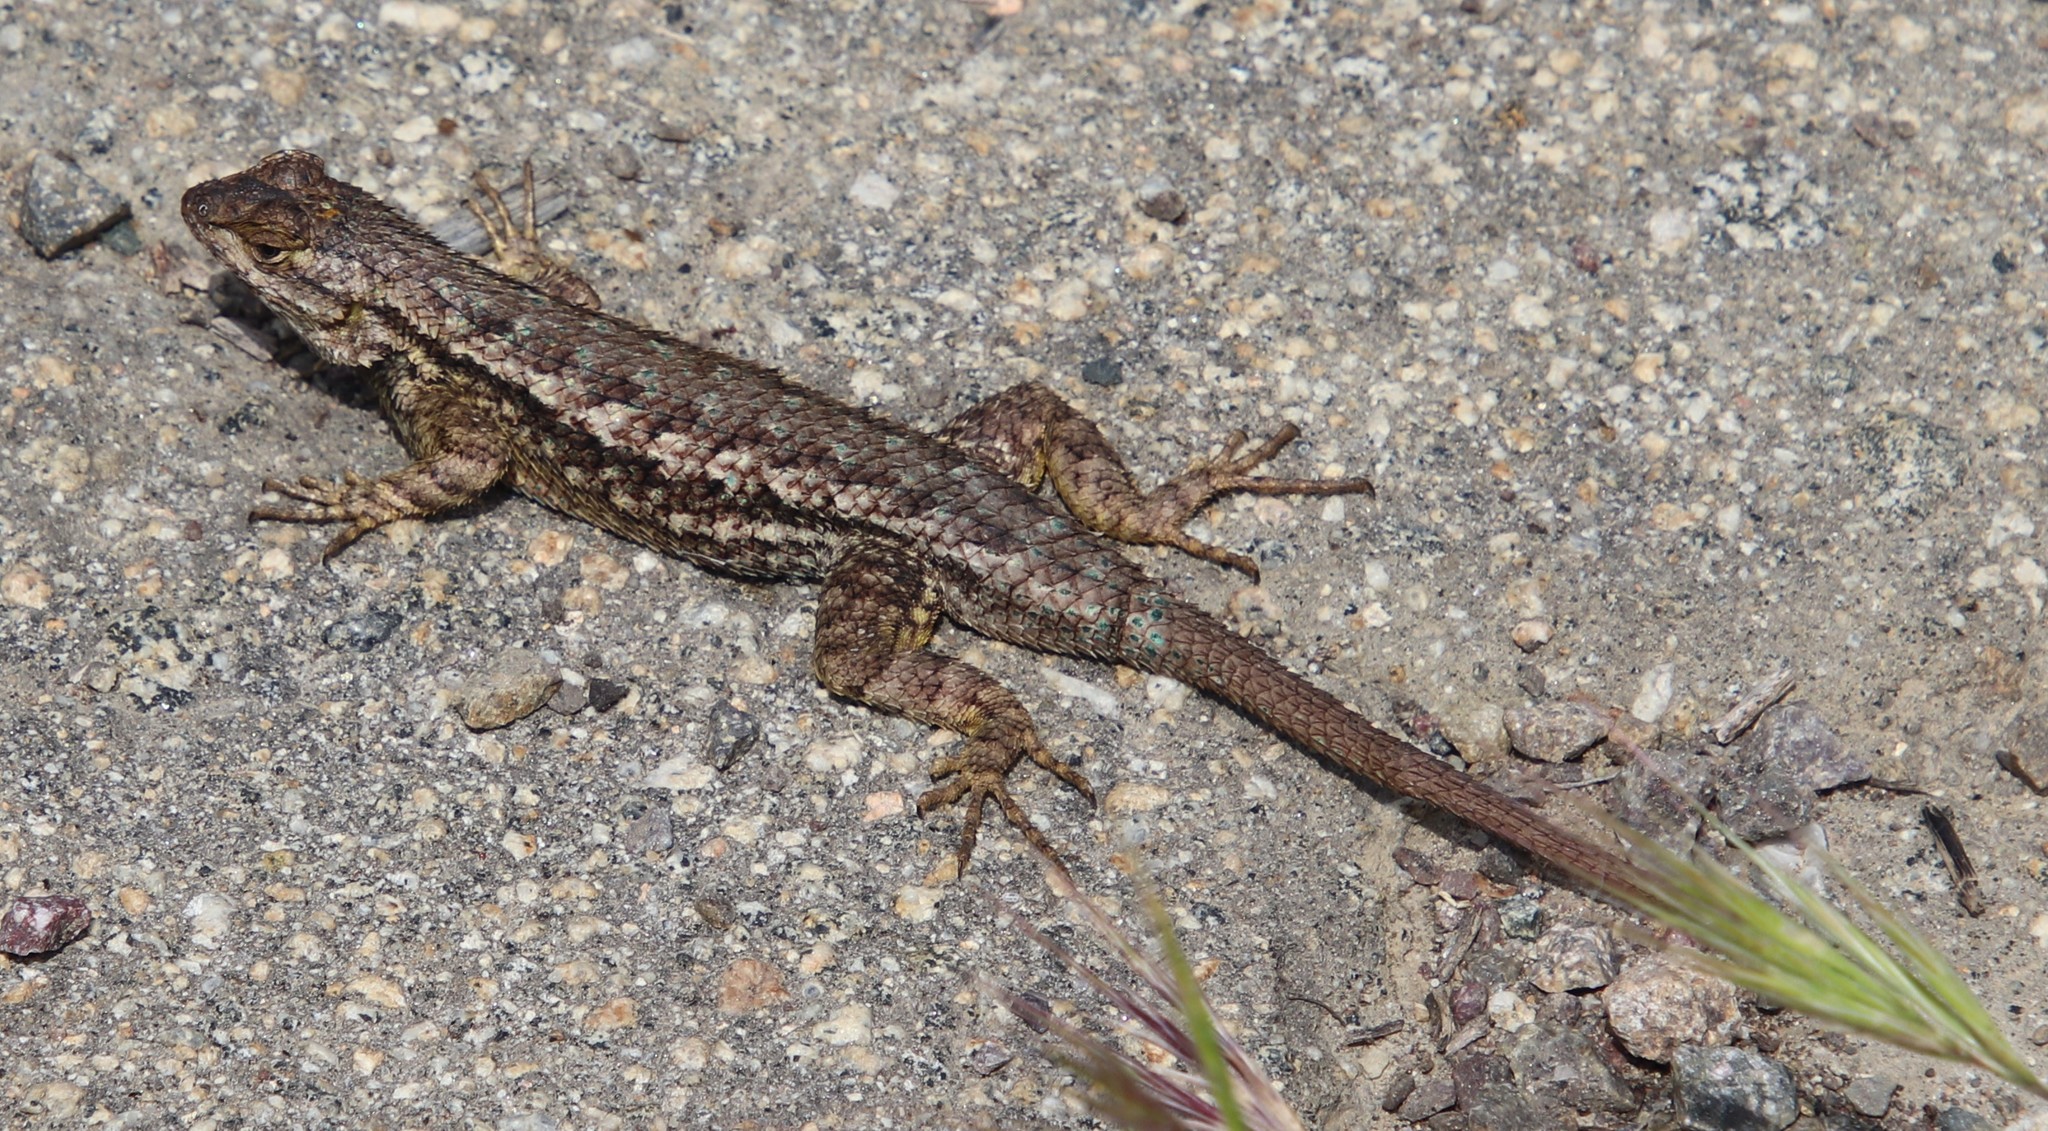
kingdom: Animalia
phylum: Chordata
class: Squamata
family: Phrynosomatidae
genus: Sceloporus
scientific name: Sceloporus occidentalis
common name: Western fence lizard
